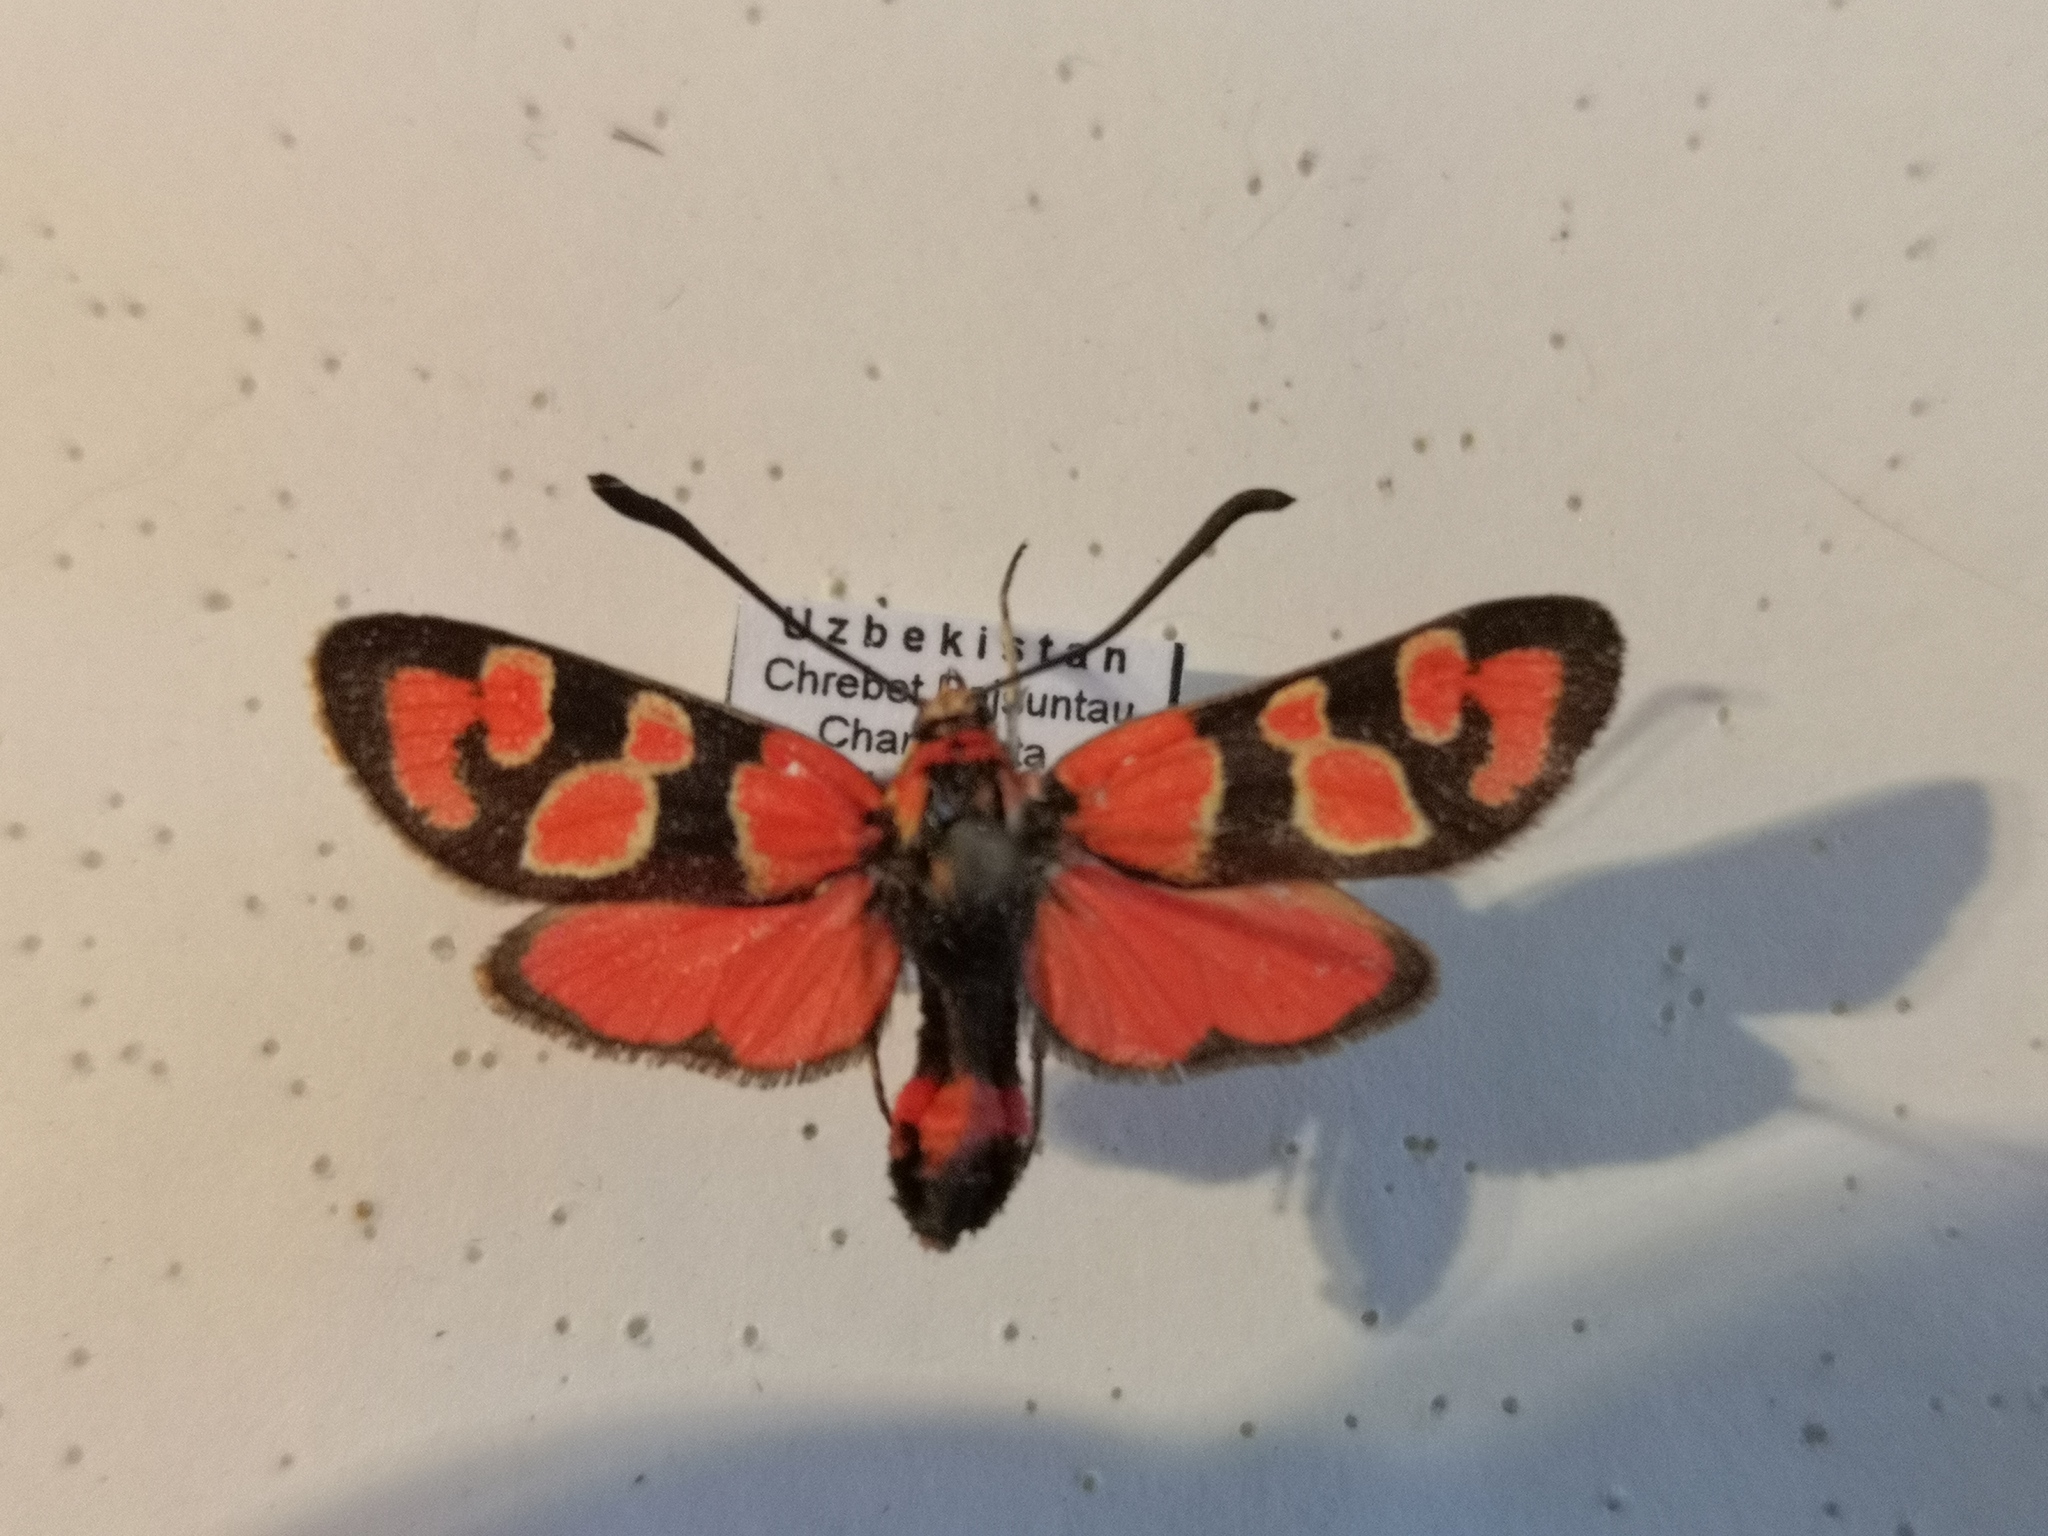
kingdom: Animalia
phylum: Arthropoda
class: Insecta
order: Lepidoptera
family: Zygaenidae
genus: Zygaena
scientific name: Zygaena cocandica
